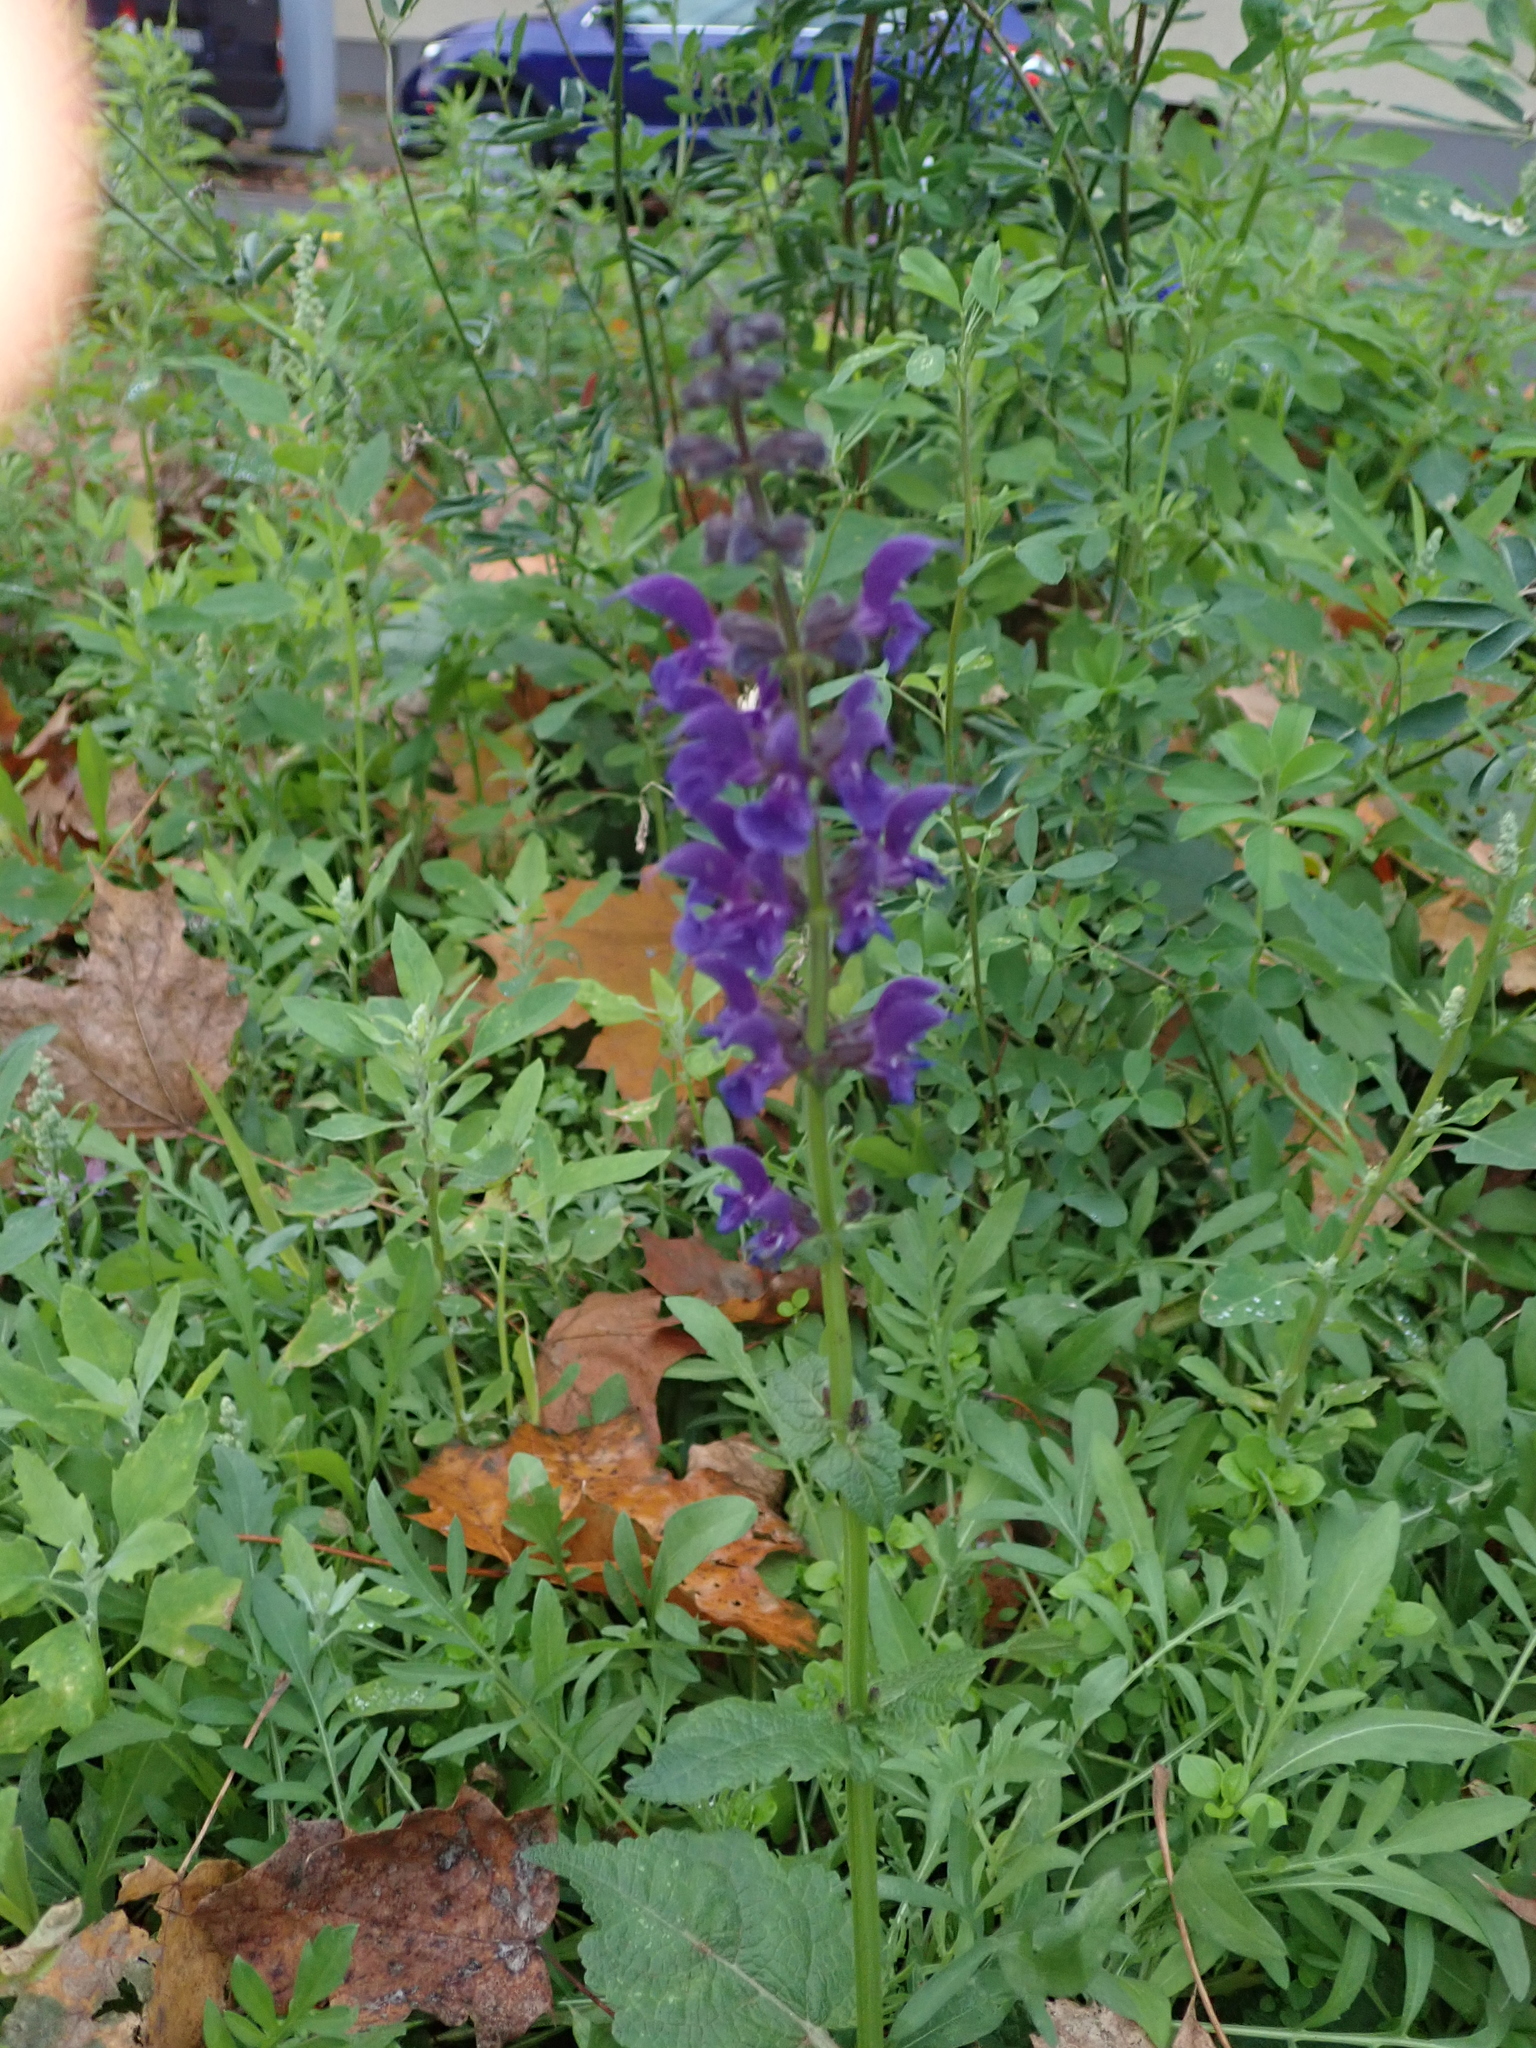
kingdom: Plantae
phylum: Tracheophyta
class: Magnoliopsida
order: Lamiales
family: Lamiaceae
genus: Salvia
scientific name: Salvia pratensis
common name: Meadow sage
